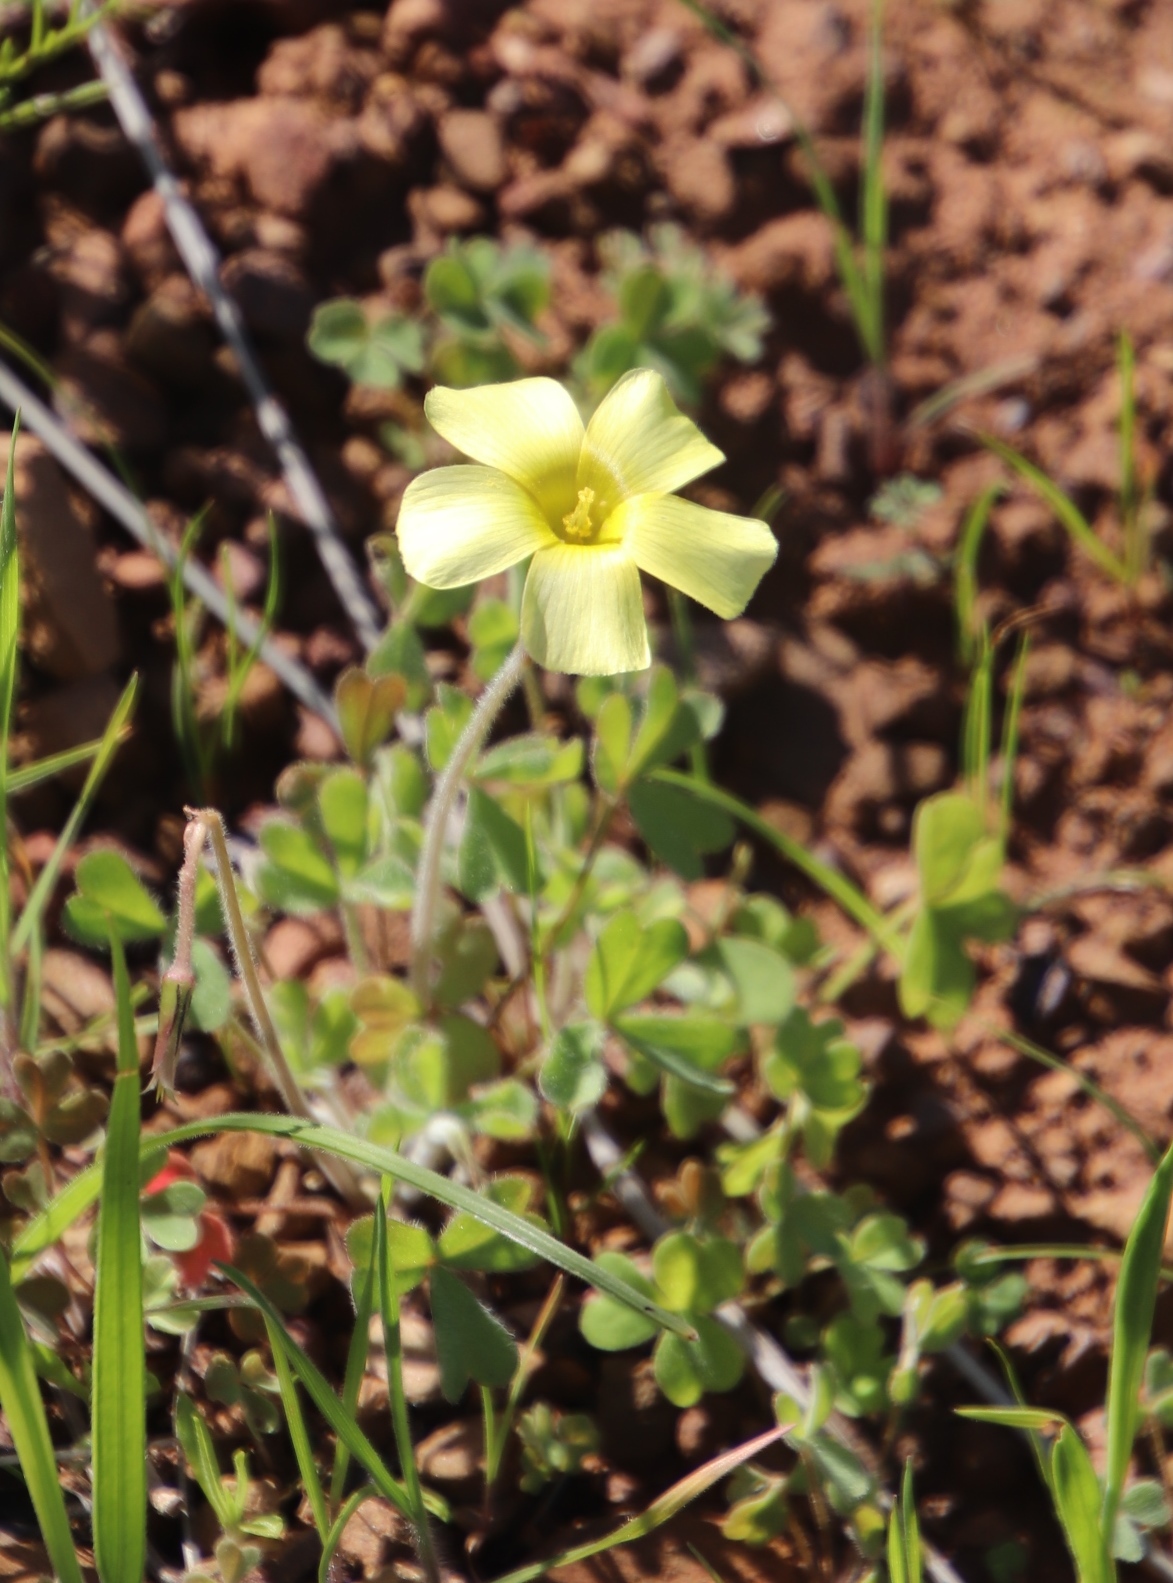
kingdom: Plantae
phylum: Tracheophyta
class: Magnoliopsida
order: Oxalidales
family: Oxalidaceae
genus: Oxalis
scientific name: Oxalis obtusa
